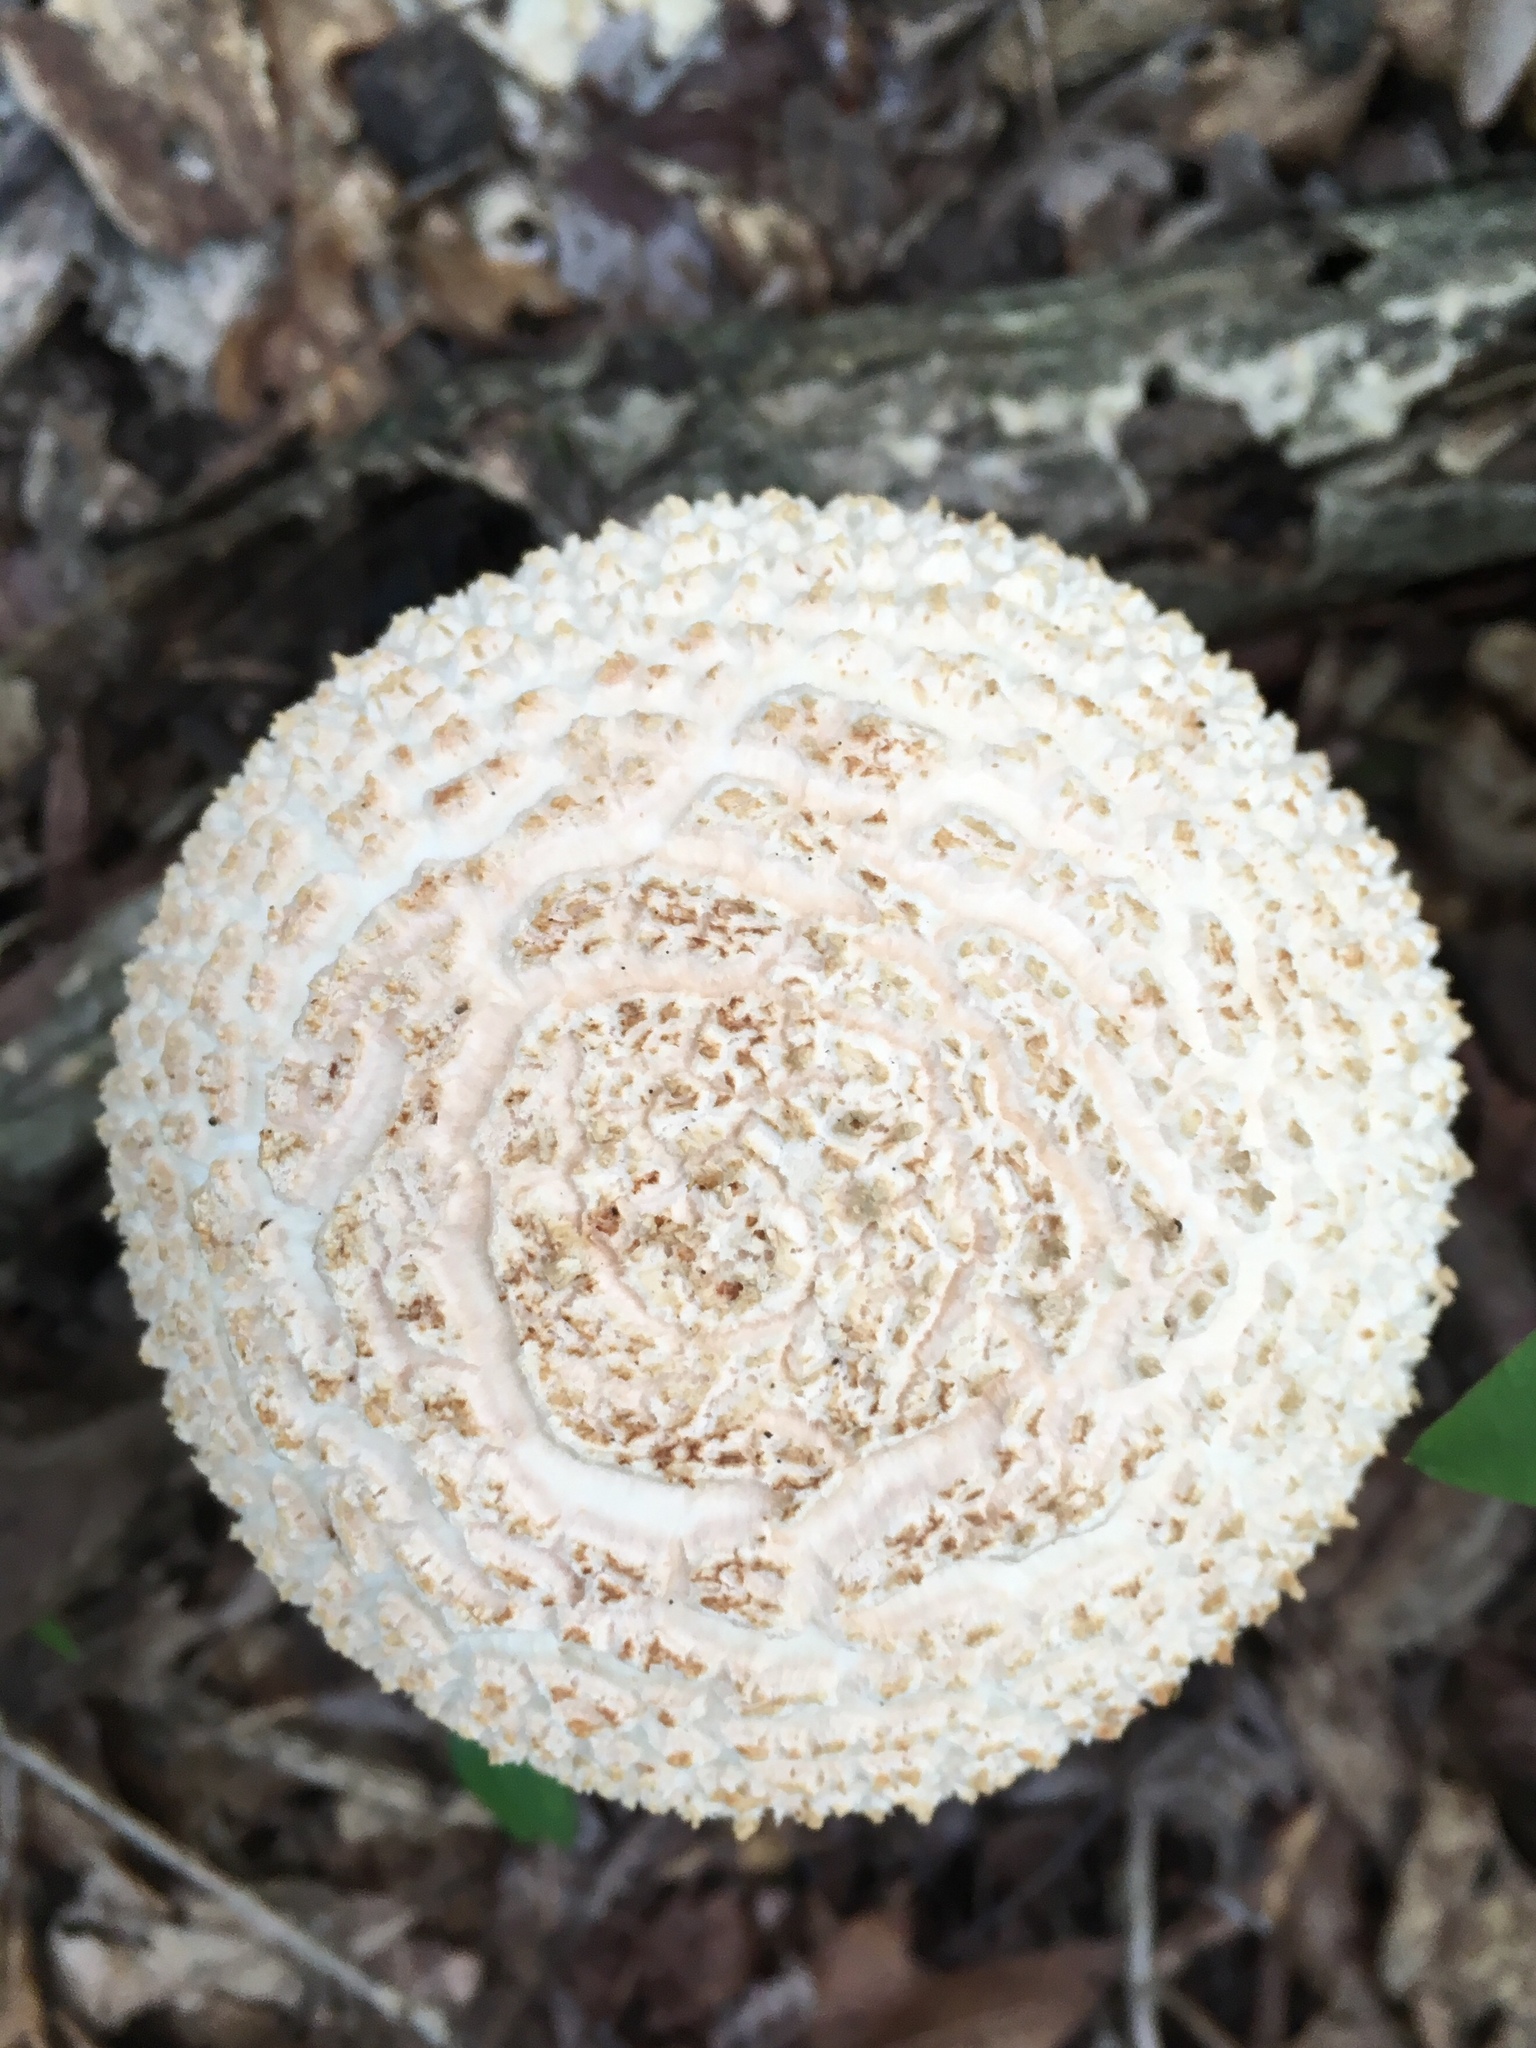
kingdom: Fungi
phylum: Basidiomycota
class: Agaricomycetes
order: Agaricales
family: Amanitaceae
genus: Amanita
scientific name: Amanita cokeri
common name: Coker's amanita
